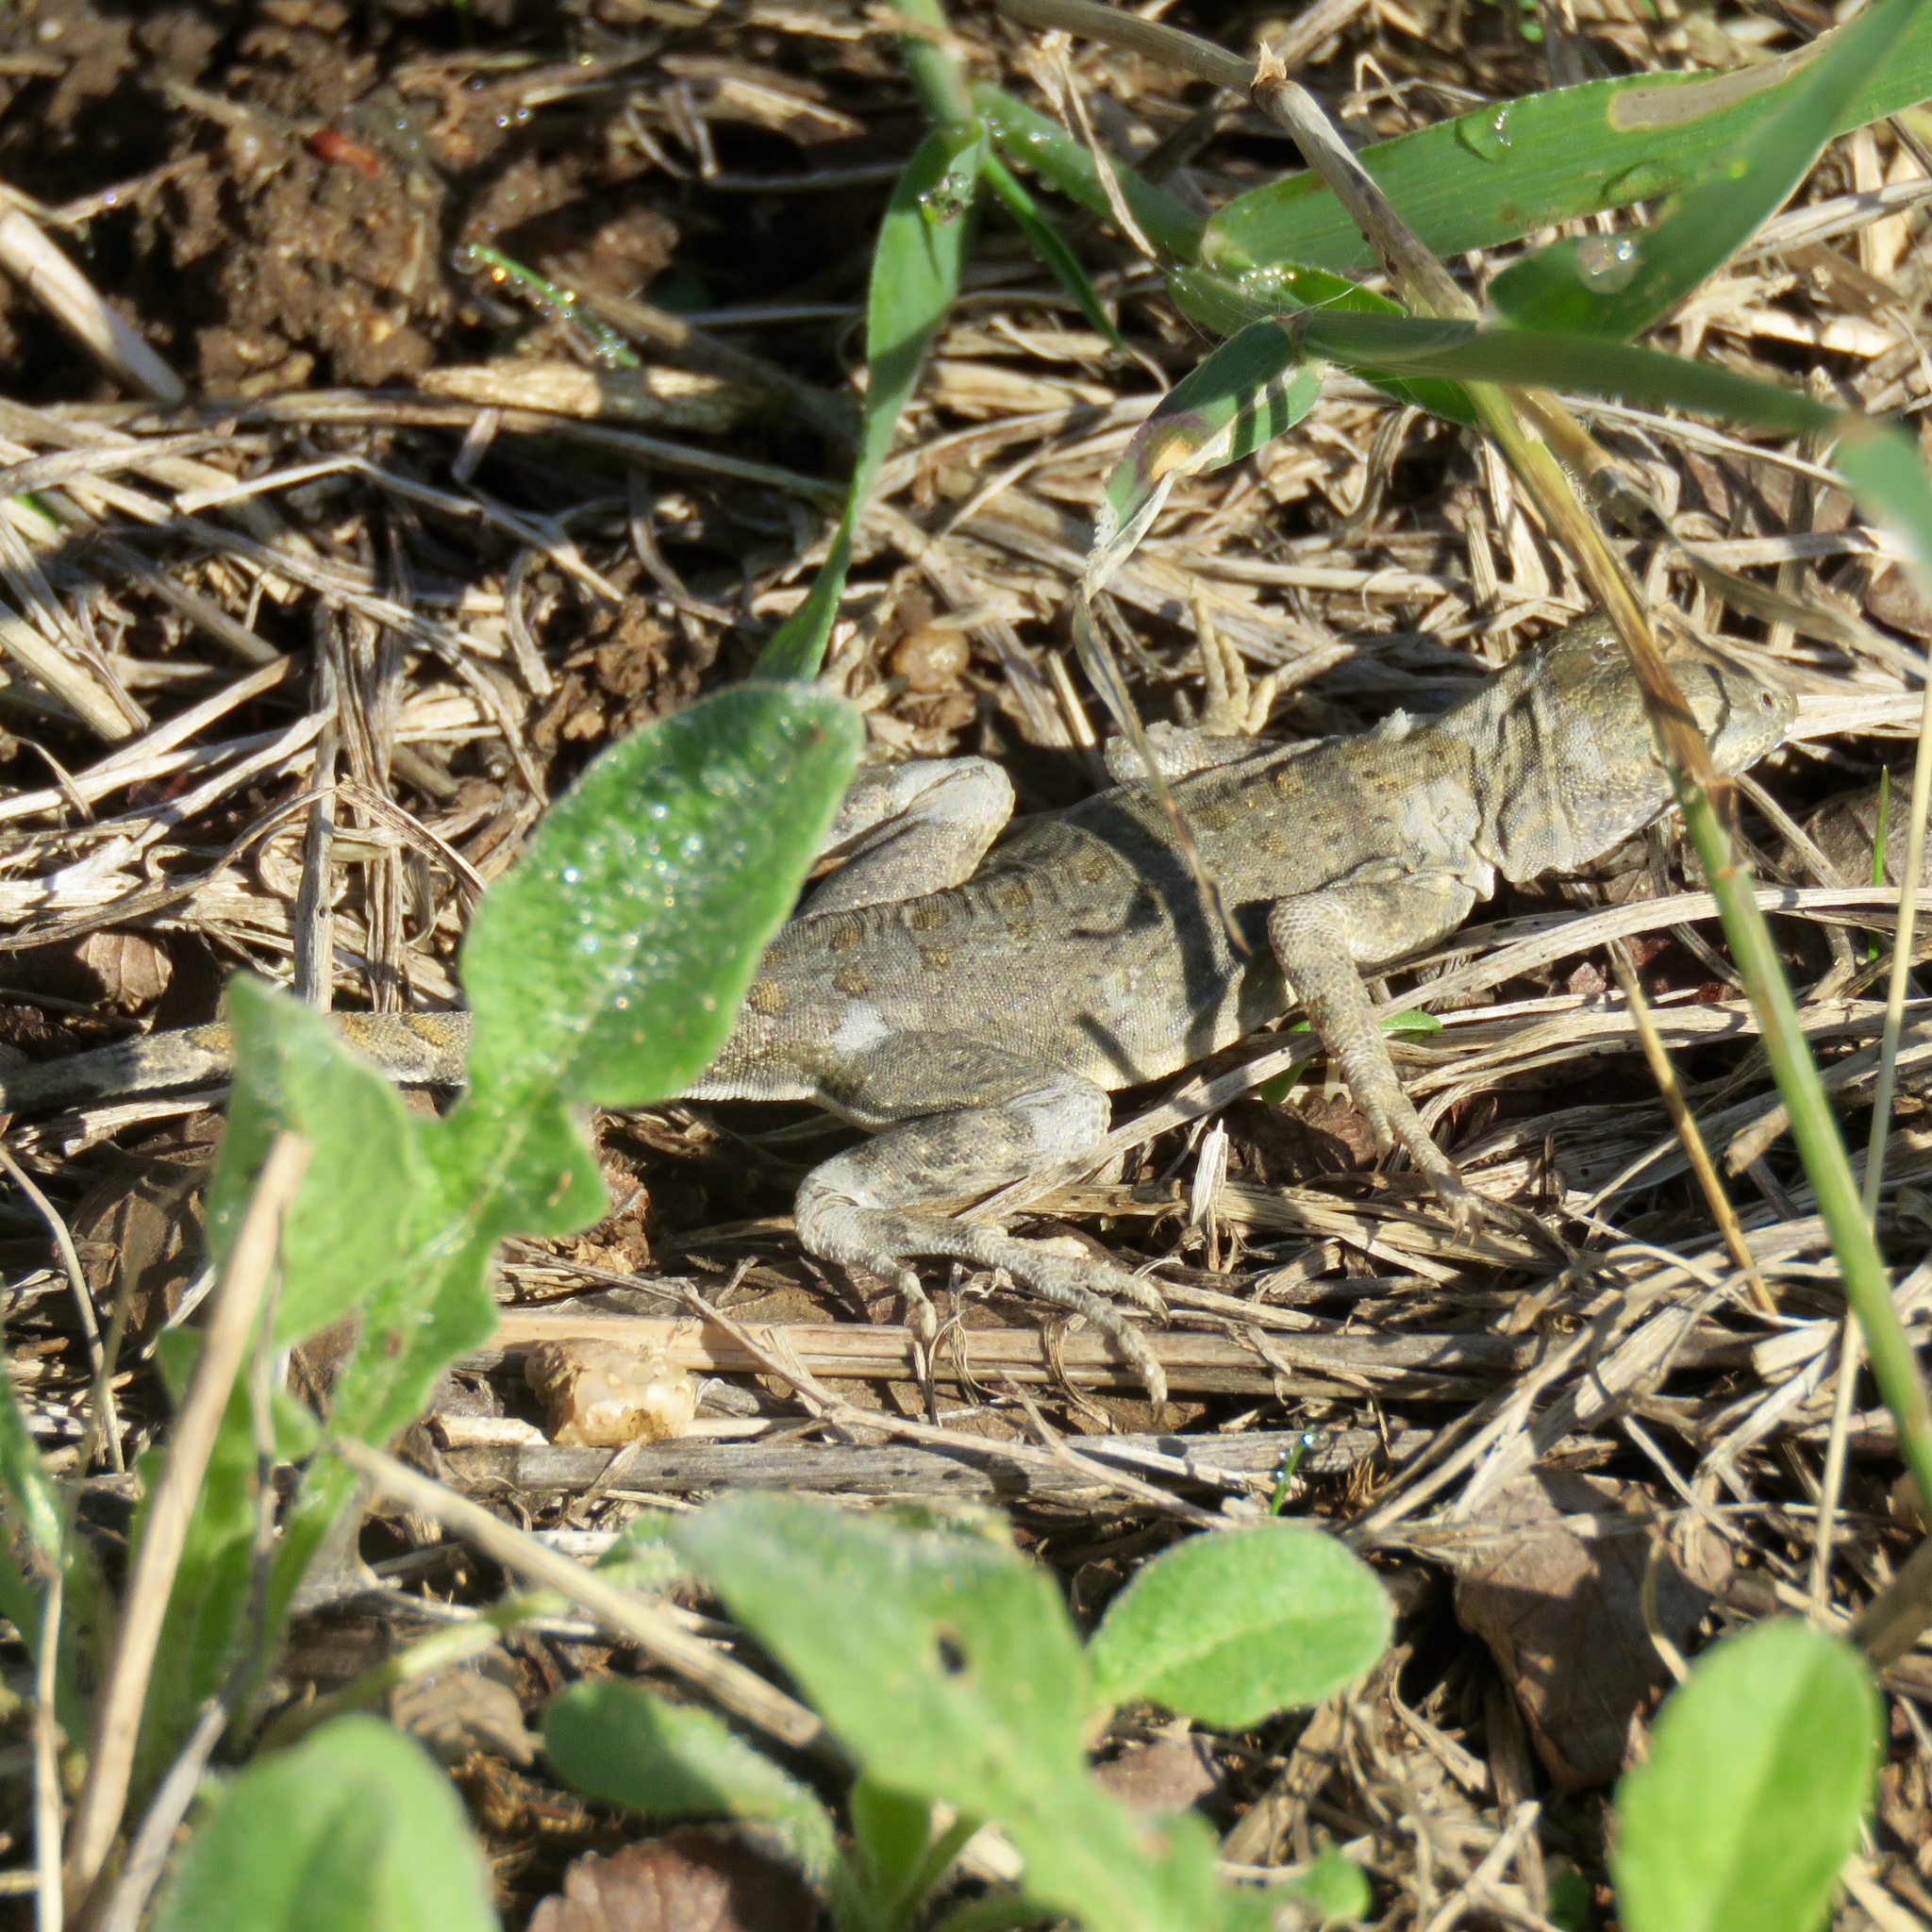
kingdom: Animalia
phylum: Chordata
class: Squamata
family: Phrynosomatidae
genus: Cophosaurus
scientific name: Cophosaurus texanus
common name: Greater earless lizard
